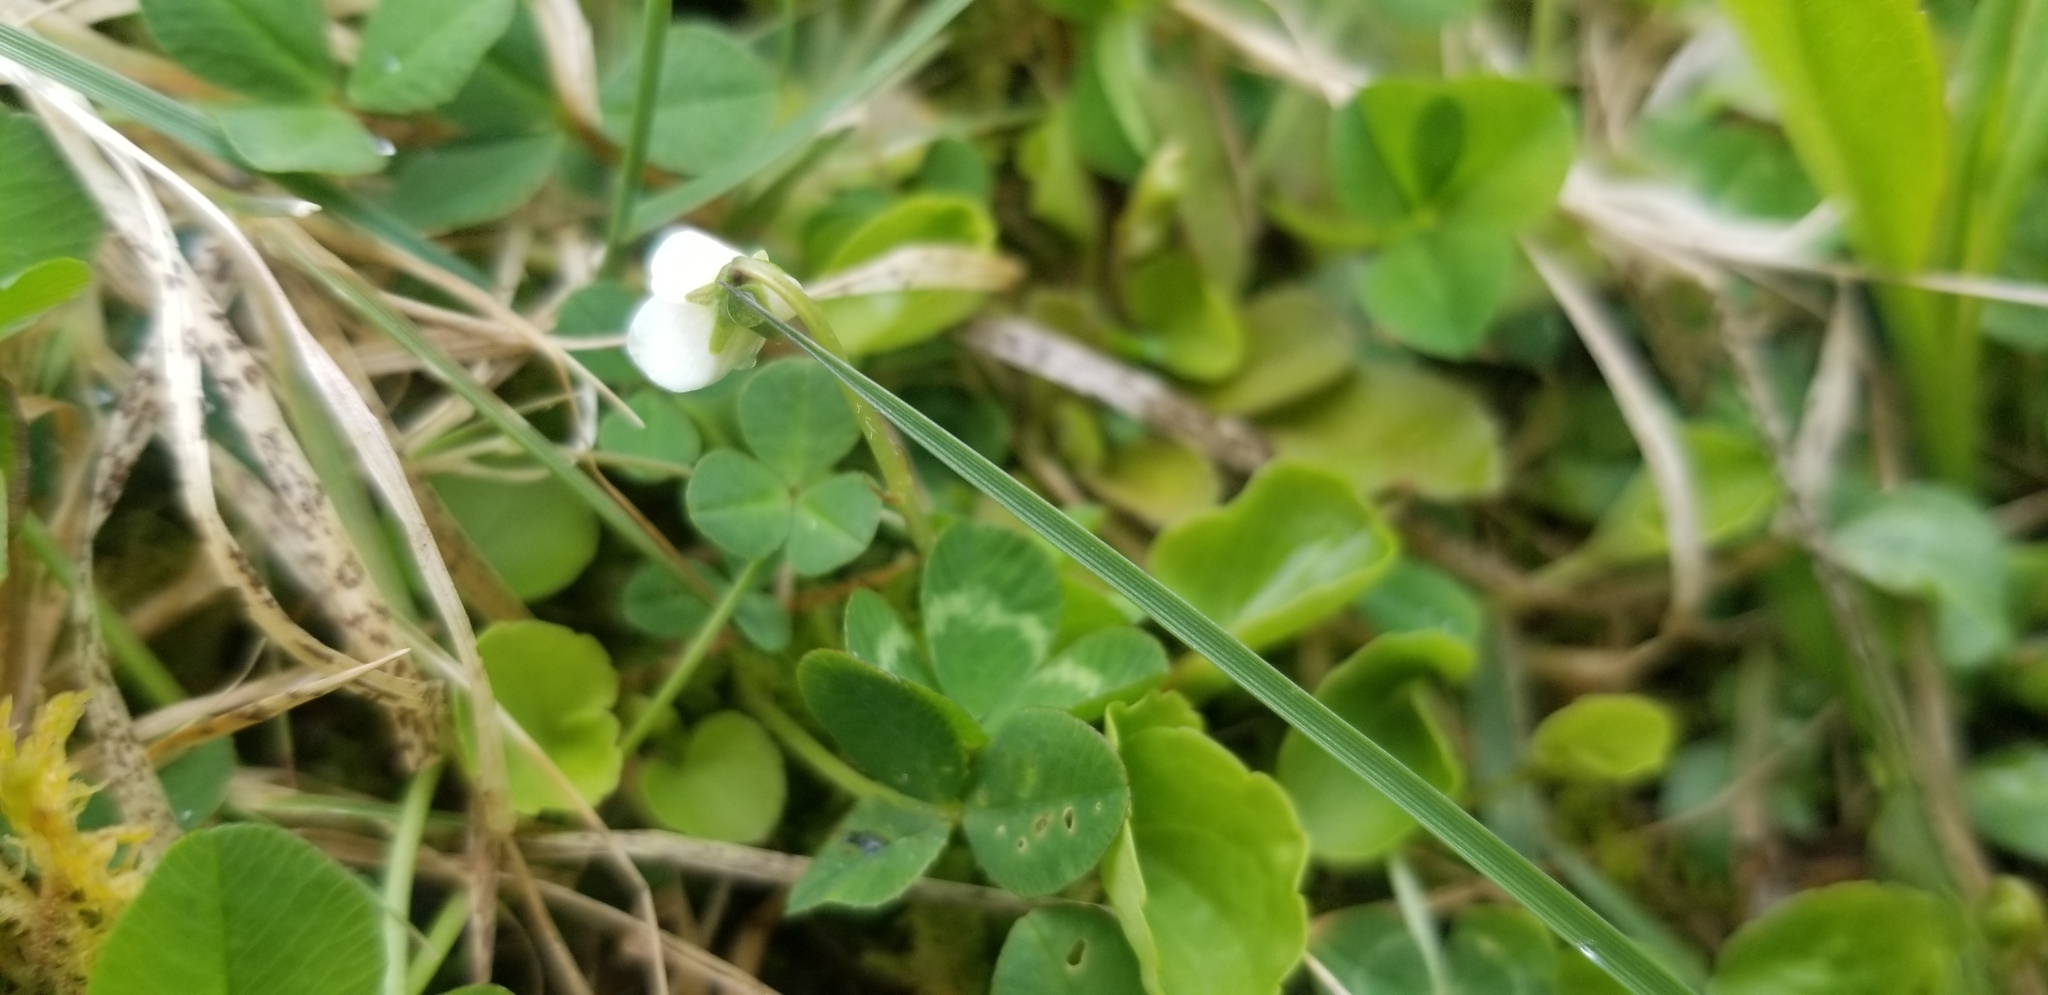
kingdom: Plantae
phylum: Tracheophyta
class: Magnoliopsida
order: Malpighiales
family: Violaceae
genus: Viola
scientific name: Viola minuscula
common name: Northern white violet
